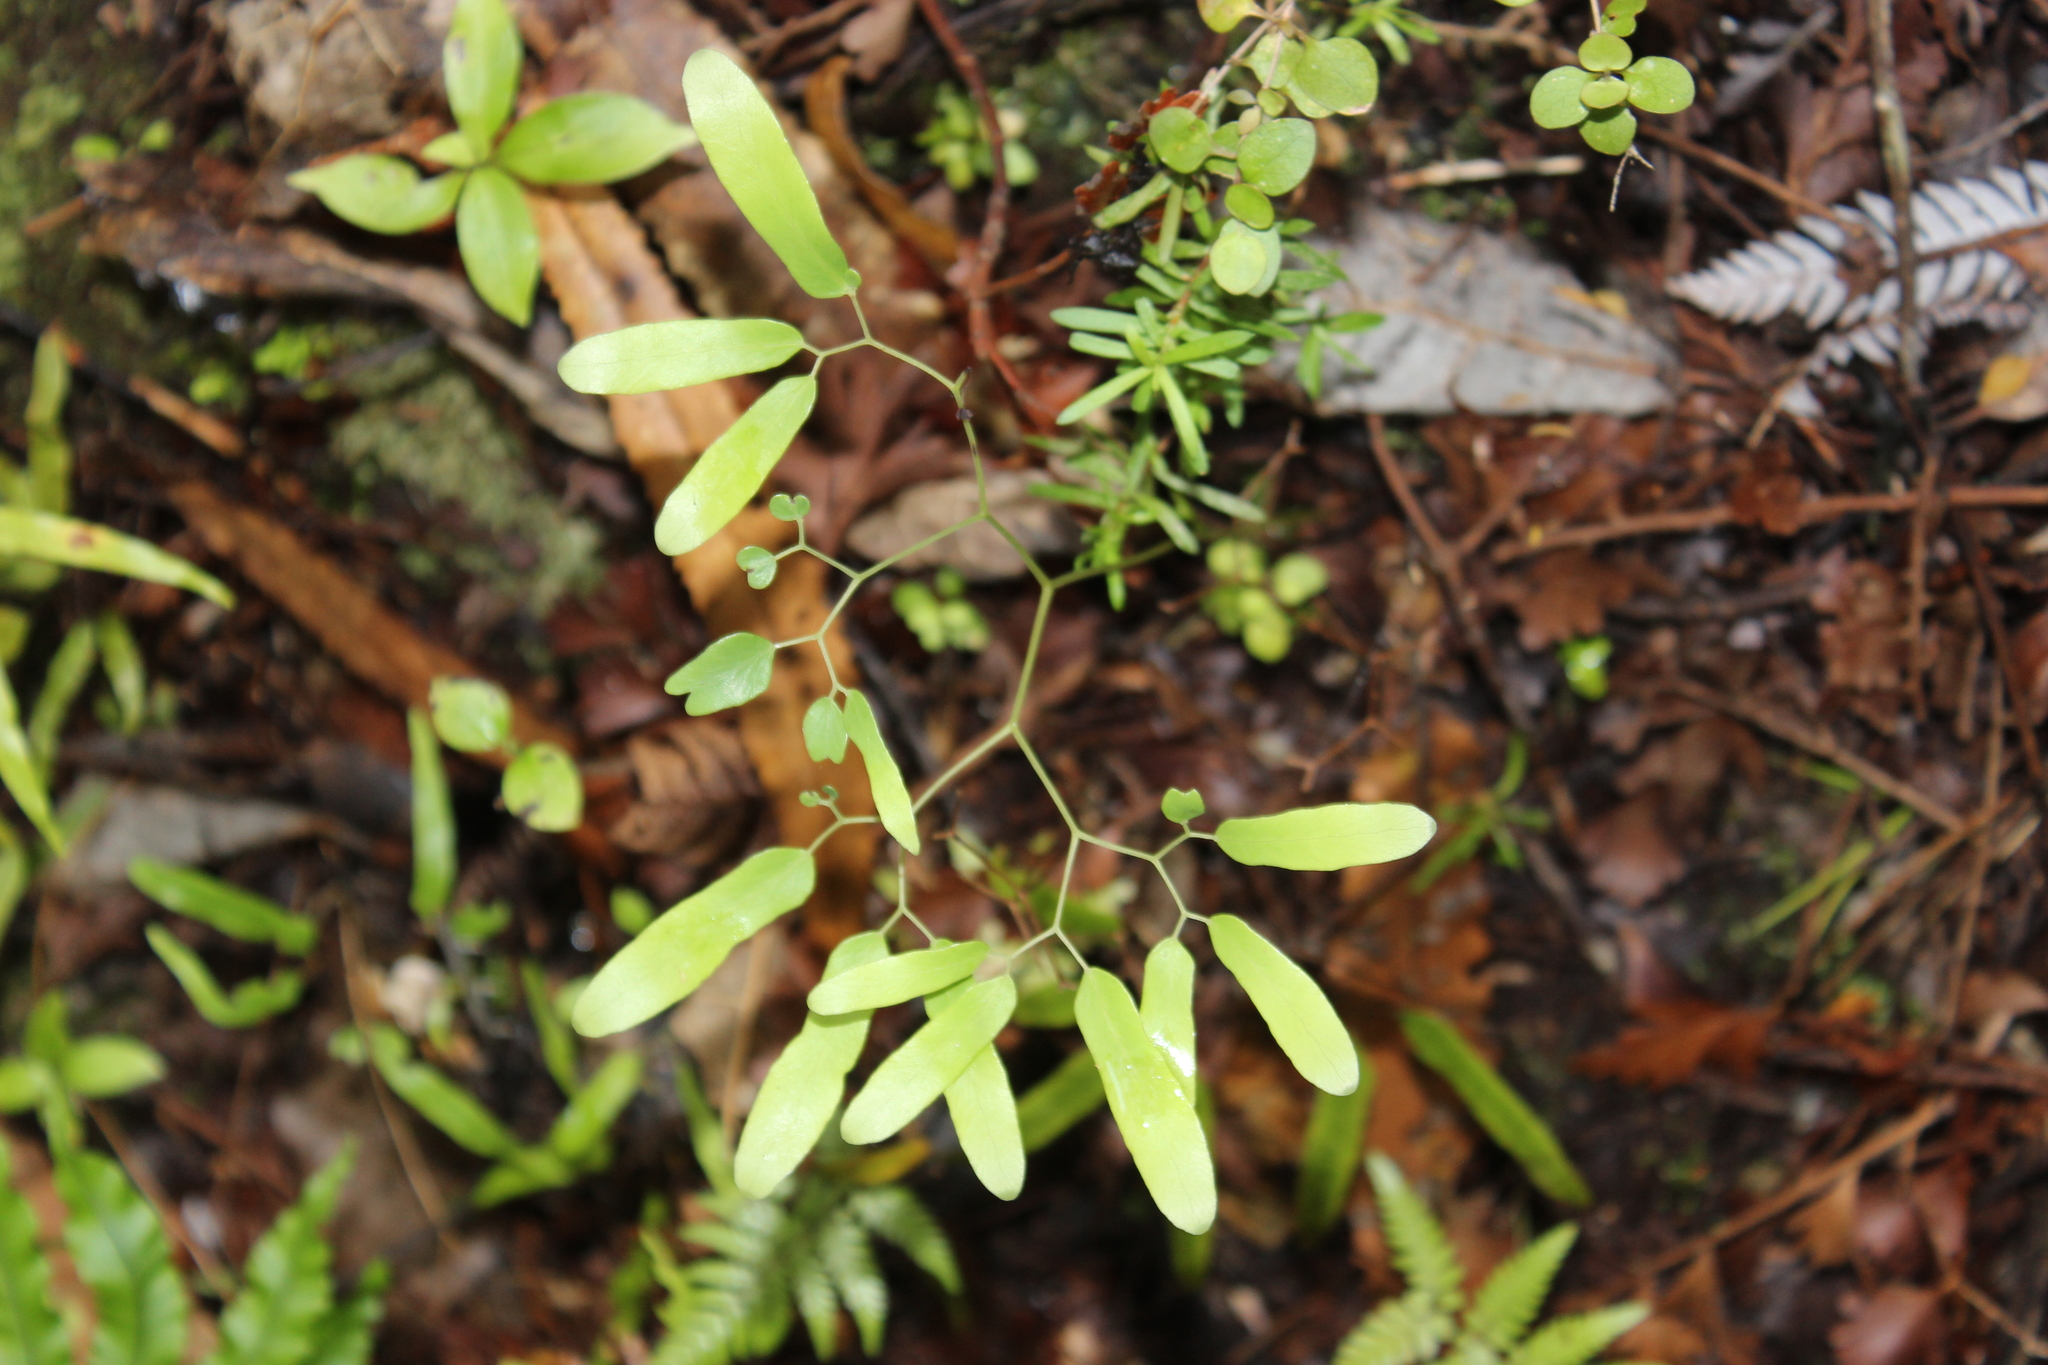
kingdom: Plantae
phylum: Tracheophyta
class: Polypodiopsida
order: Schizaeales
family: Lygodiaceae
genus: Lygodium
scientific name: Lygodium articulatum
